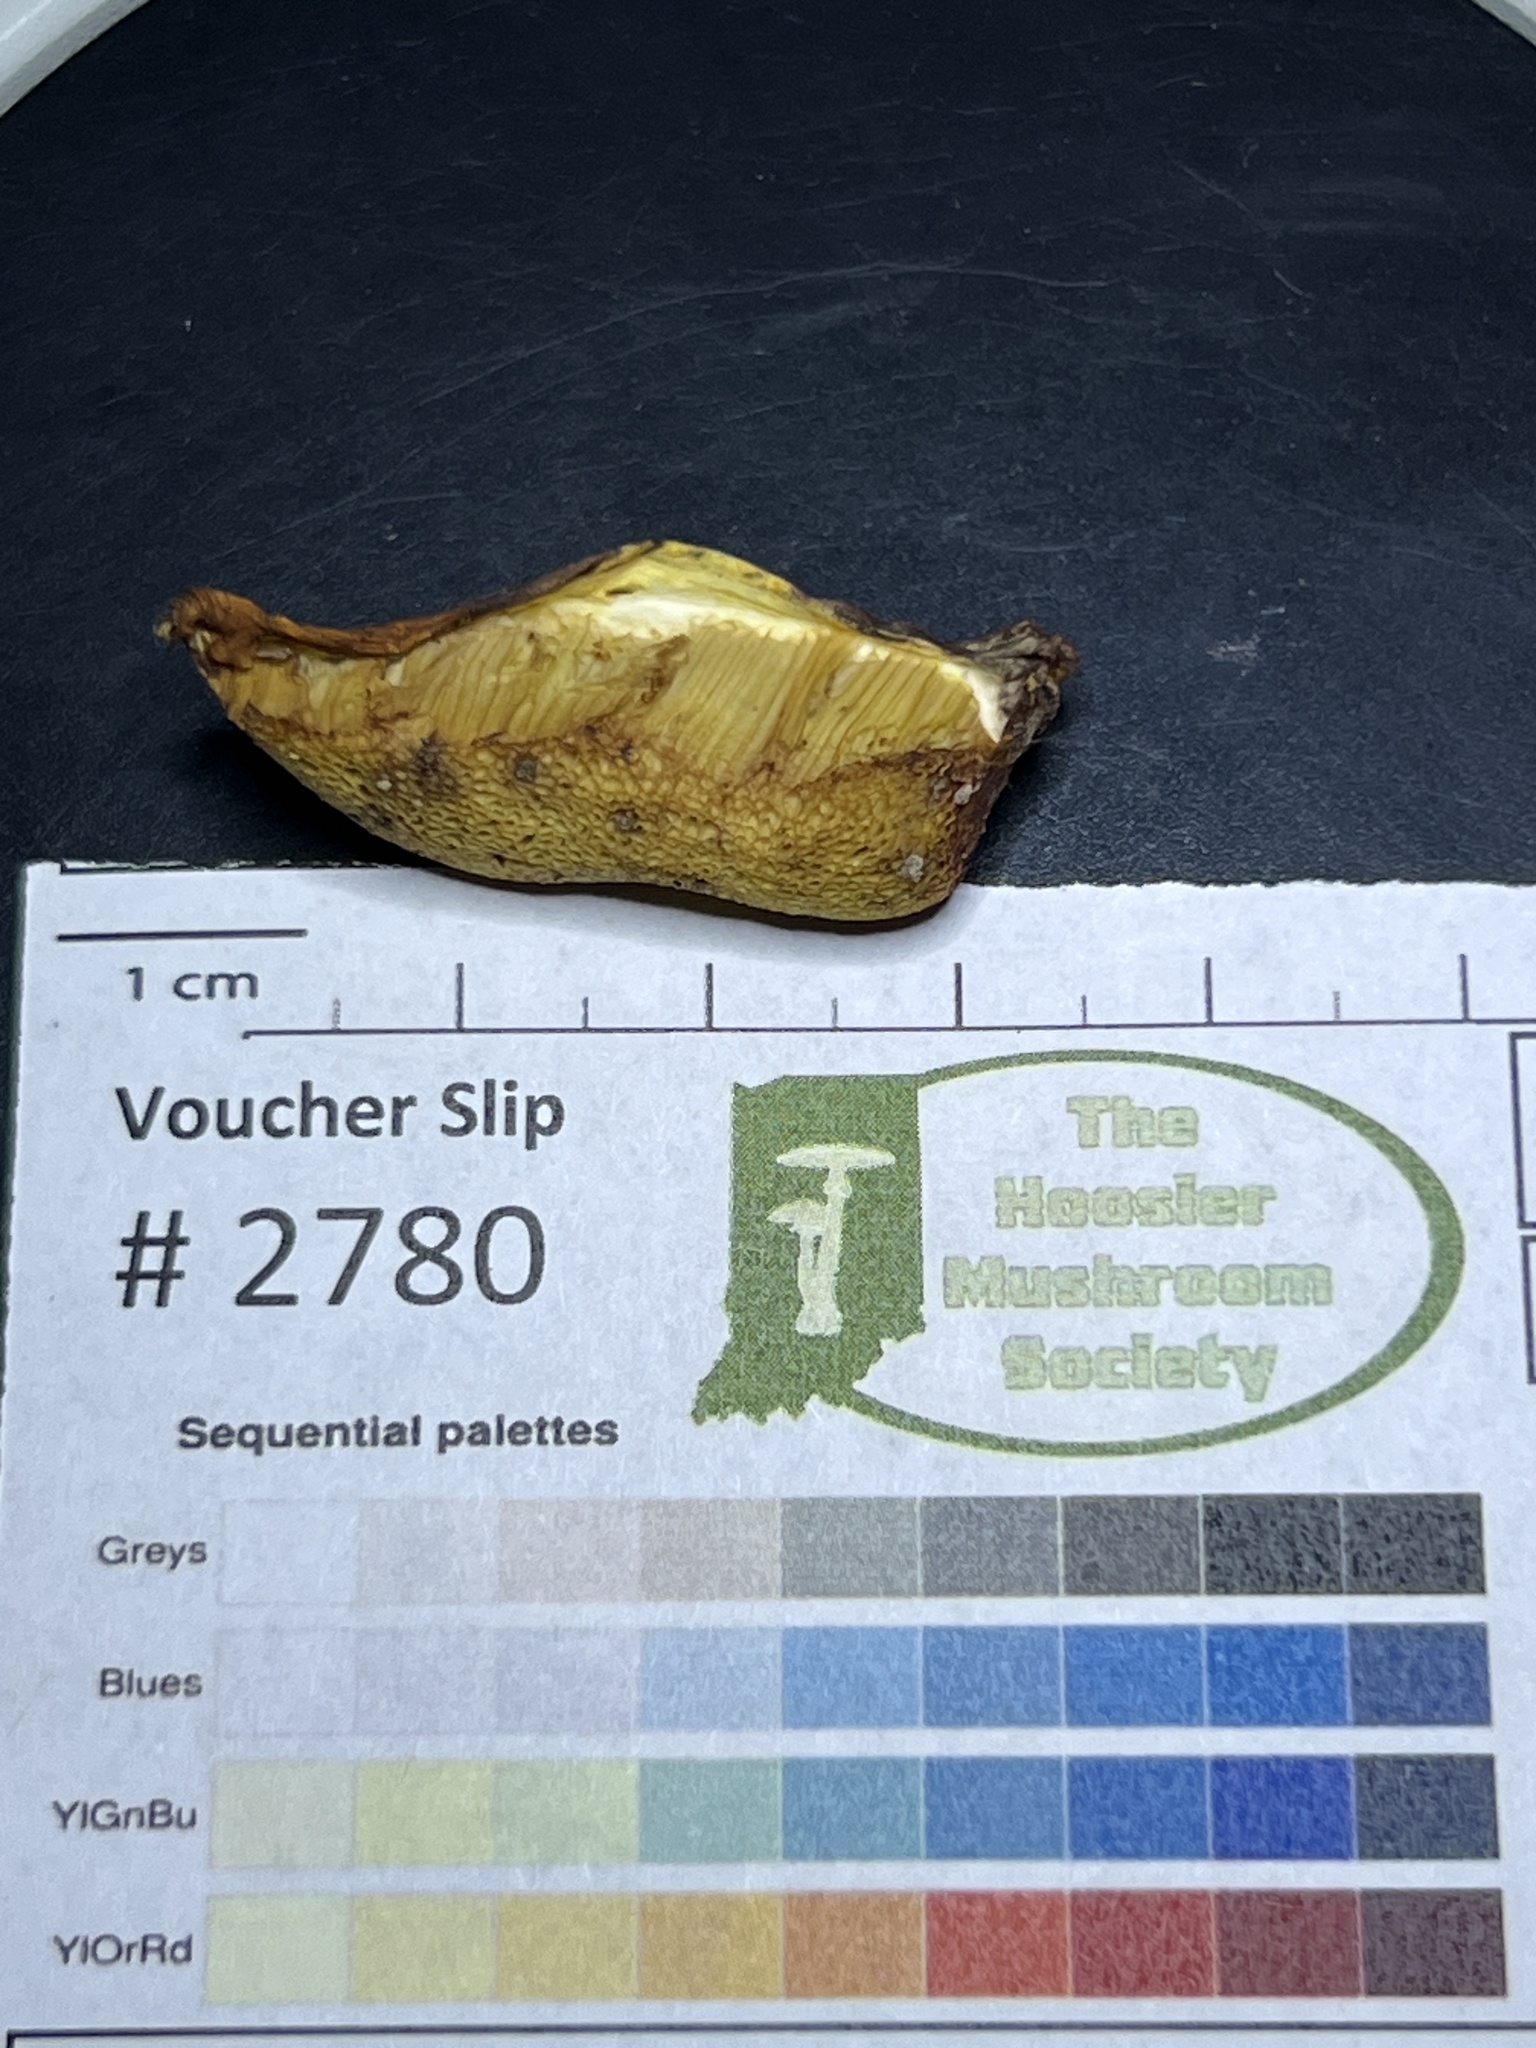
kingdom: Fungi
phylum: Basidiomycota
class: Agaricomycetes
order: Boletales
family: Boletaceae
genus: Xerocomus
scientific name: Xerocomus illudens
